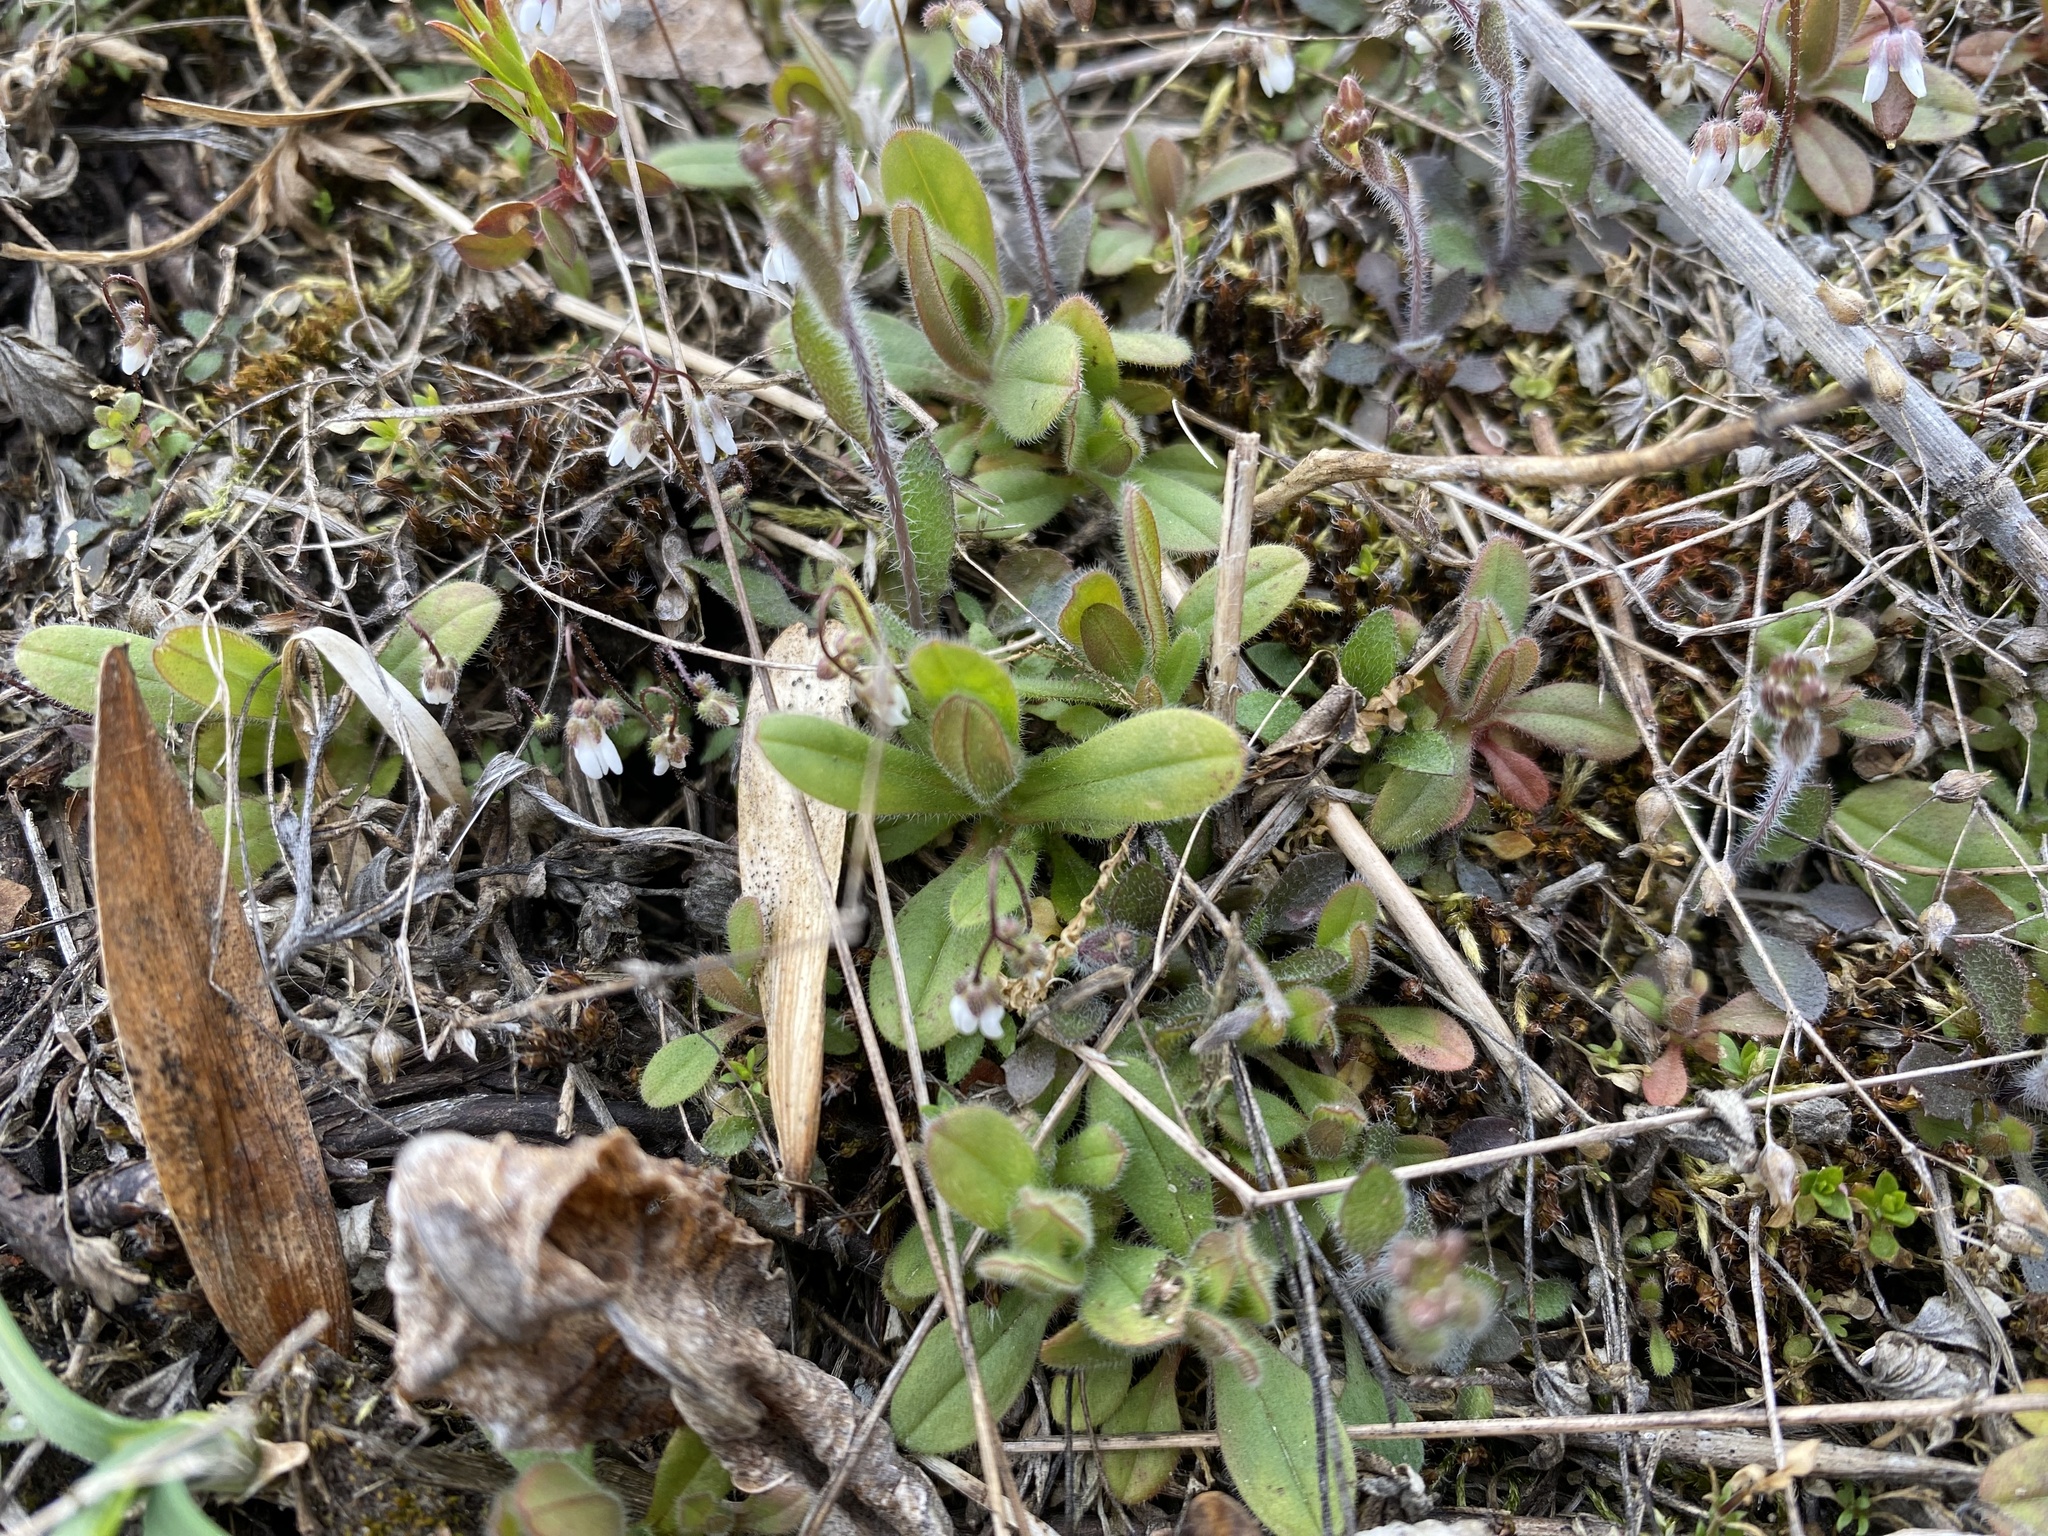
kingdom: Plantae
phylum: Tracheophyta
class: Magnoliopsida
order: Brassicales
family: Brassicaceae
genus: Draba
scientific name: Draba verna
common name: Spring draba
